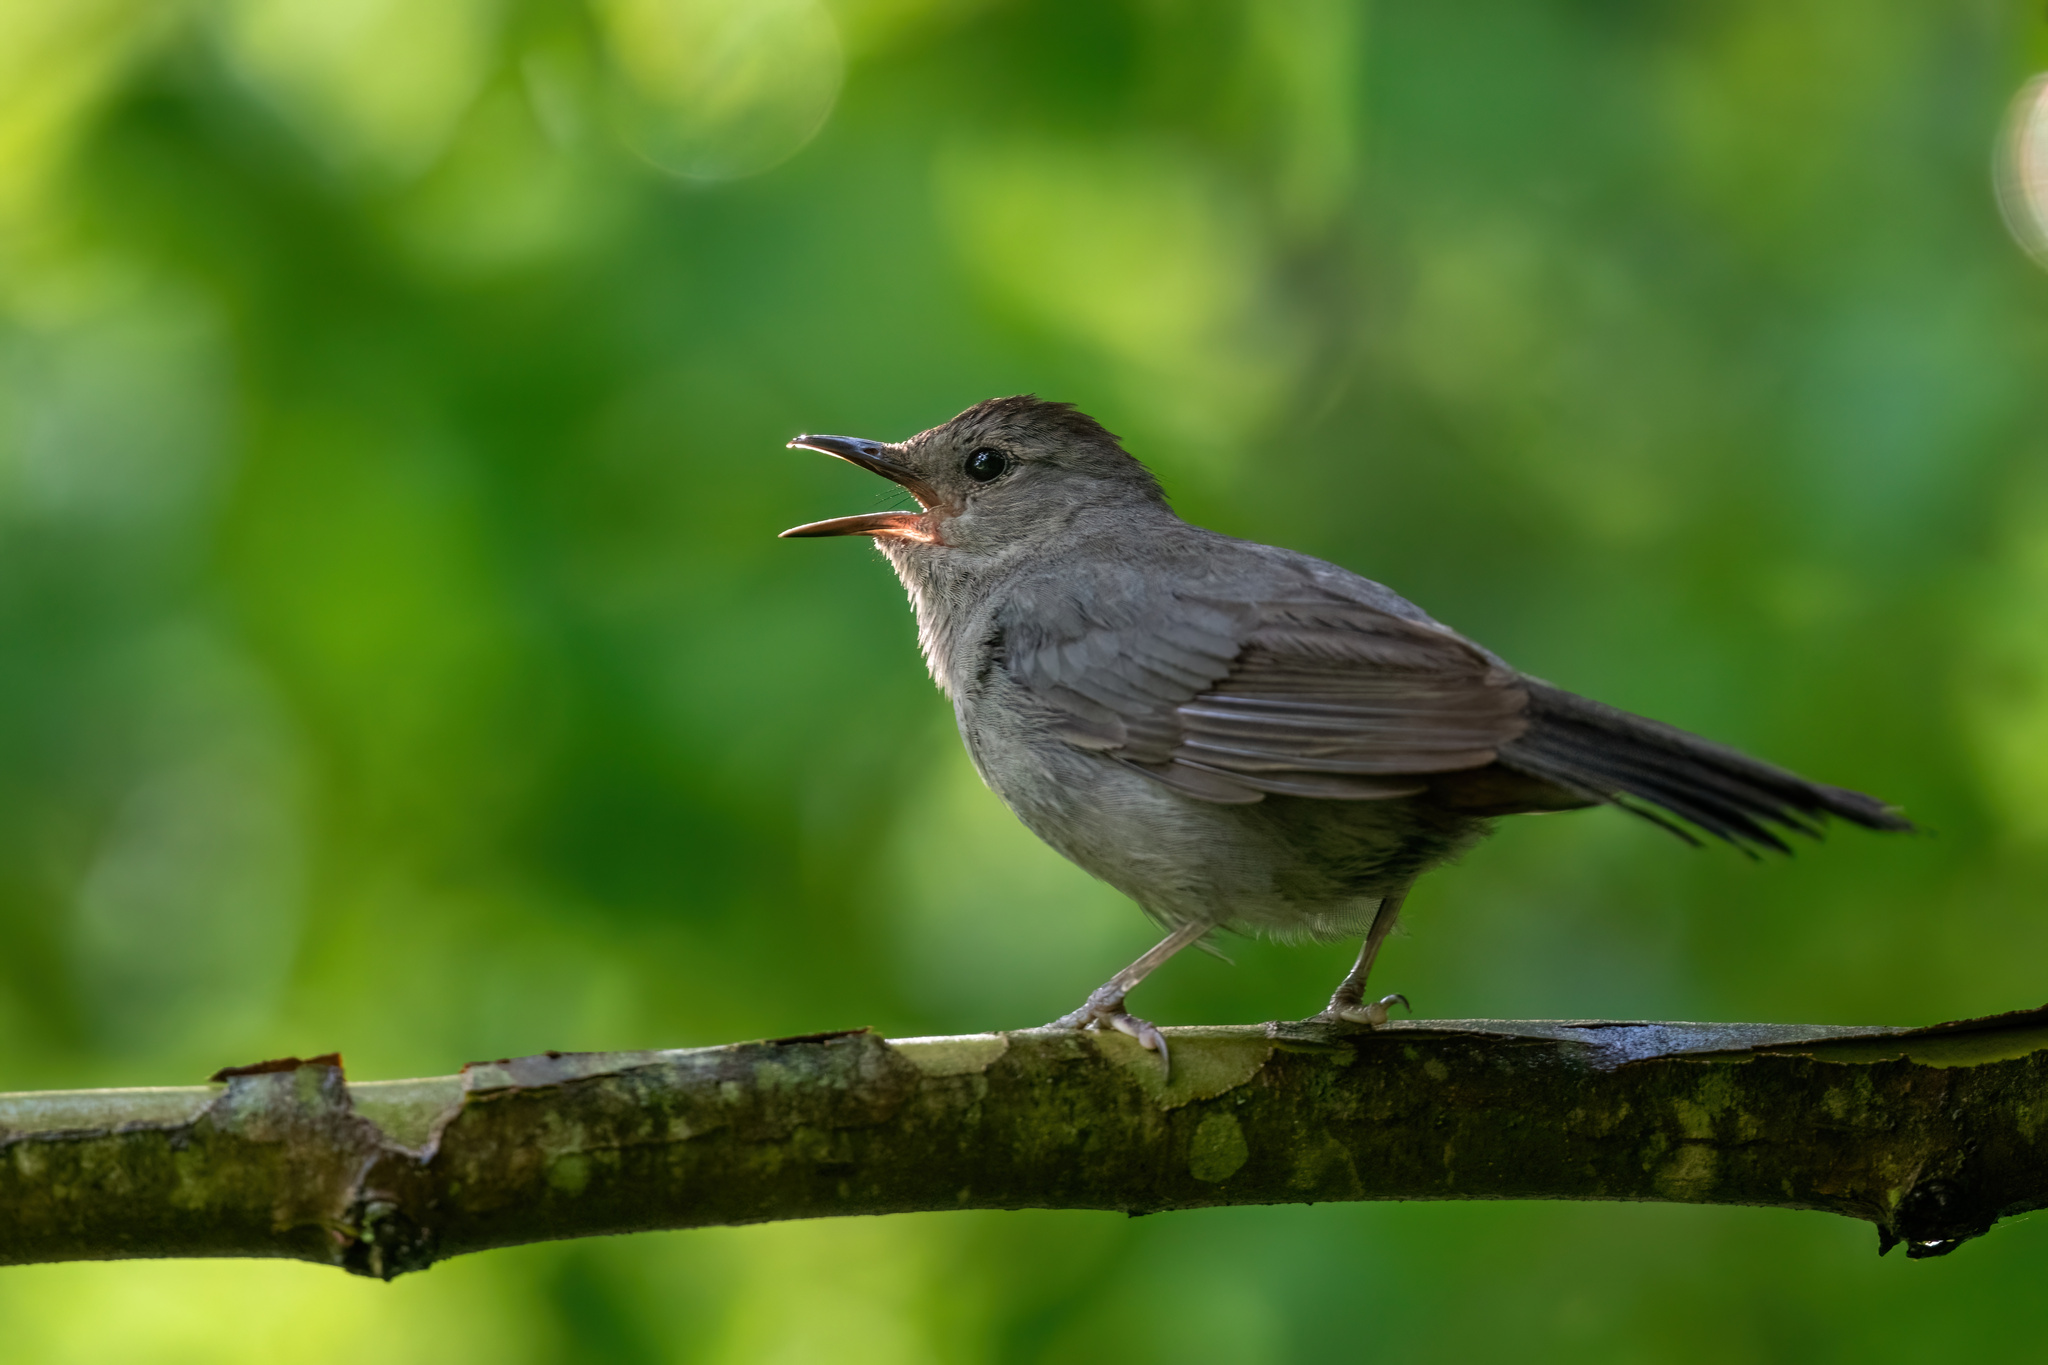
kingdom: Animalia
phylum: Chordata
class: Aves
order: Passeriformes
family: Mimidae
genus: Dumetella
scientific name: Dumetella carolinensis
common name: Gray catbird
